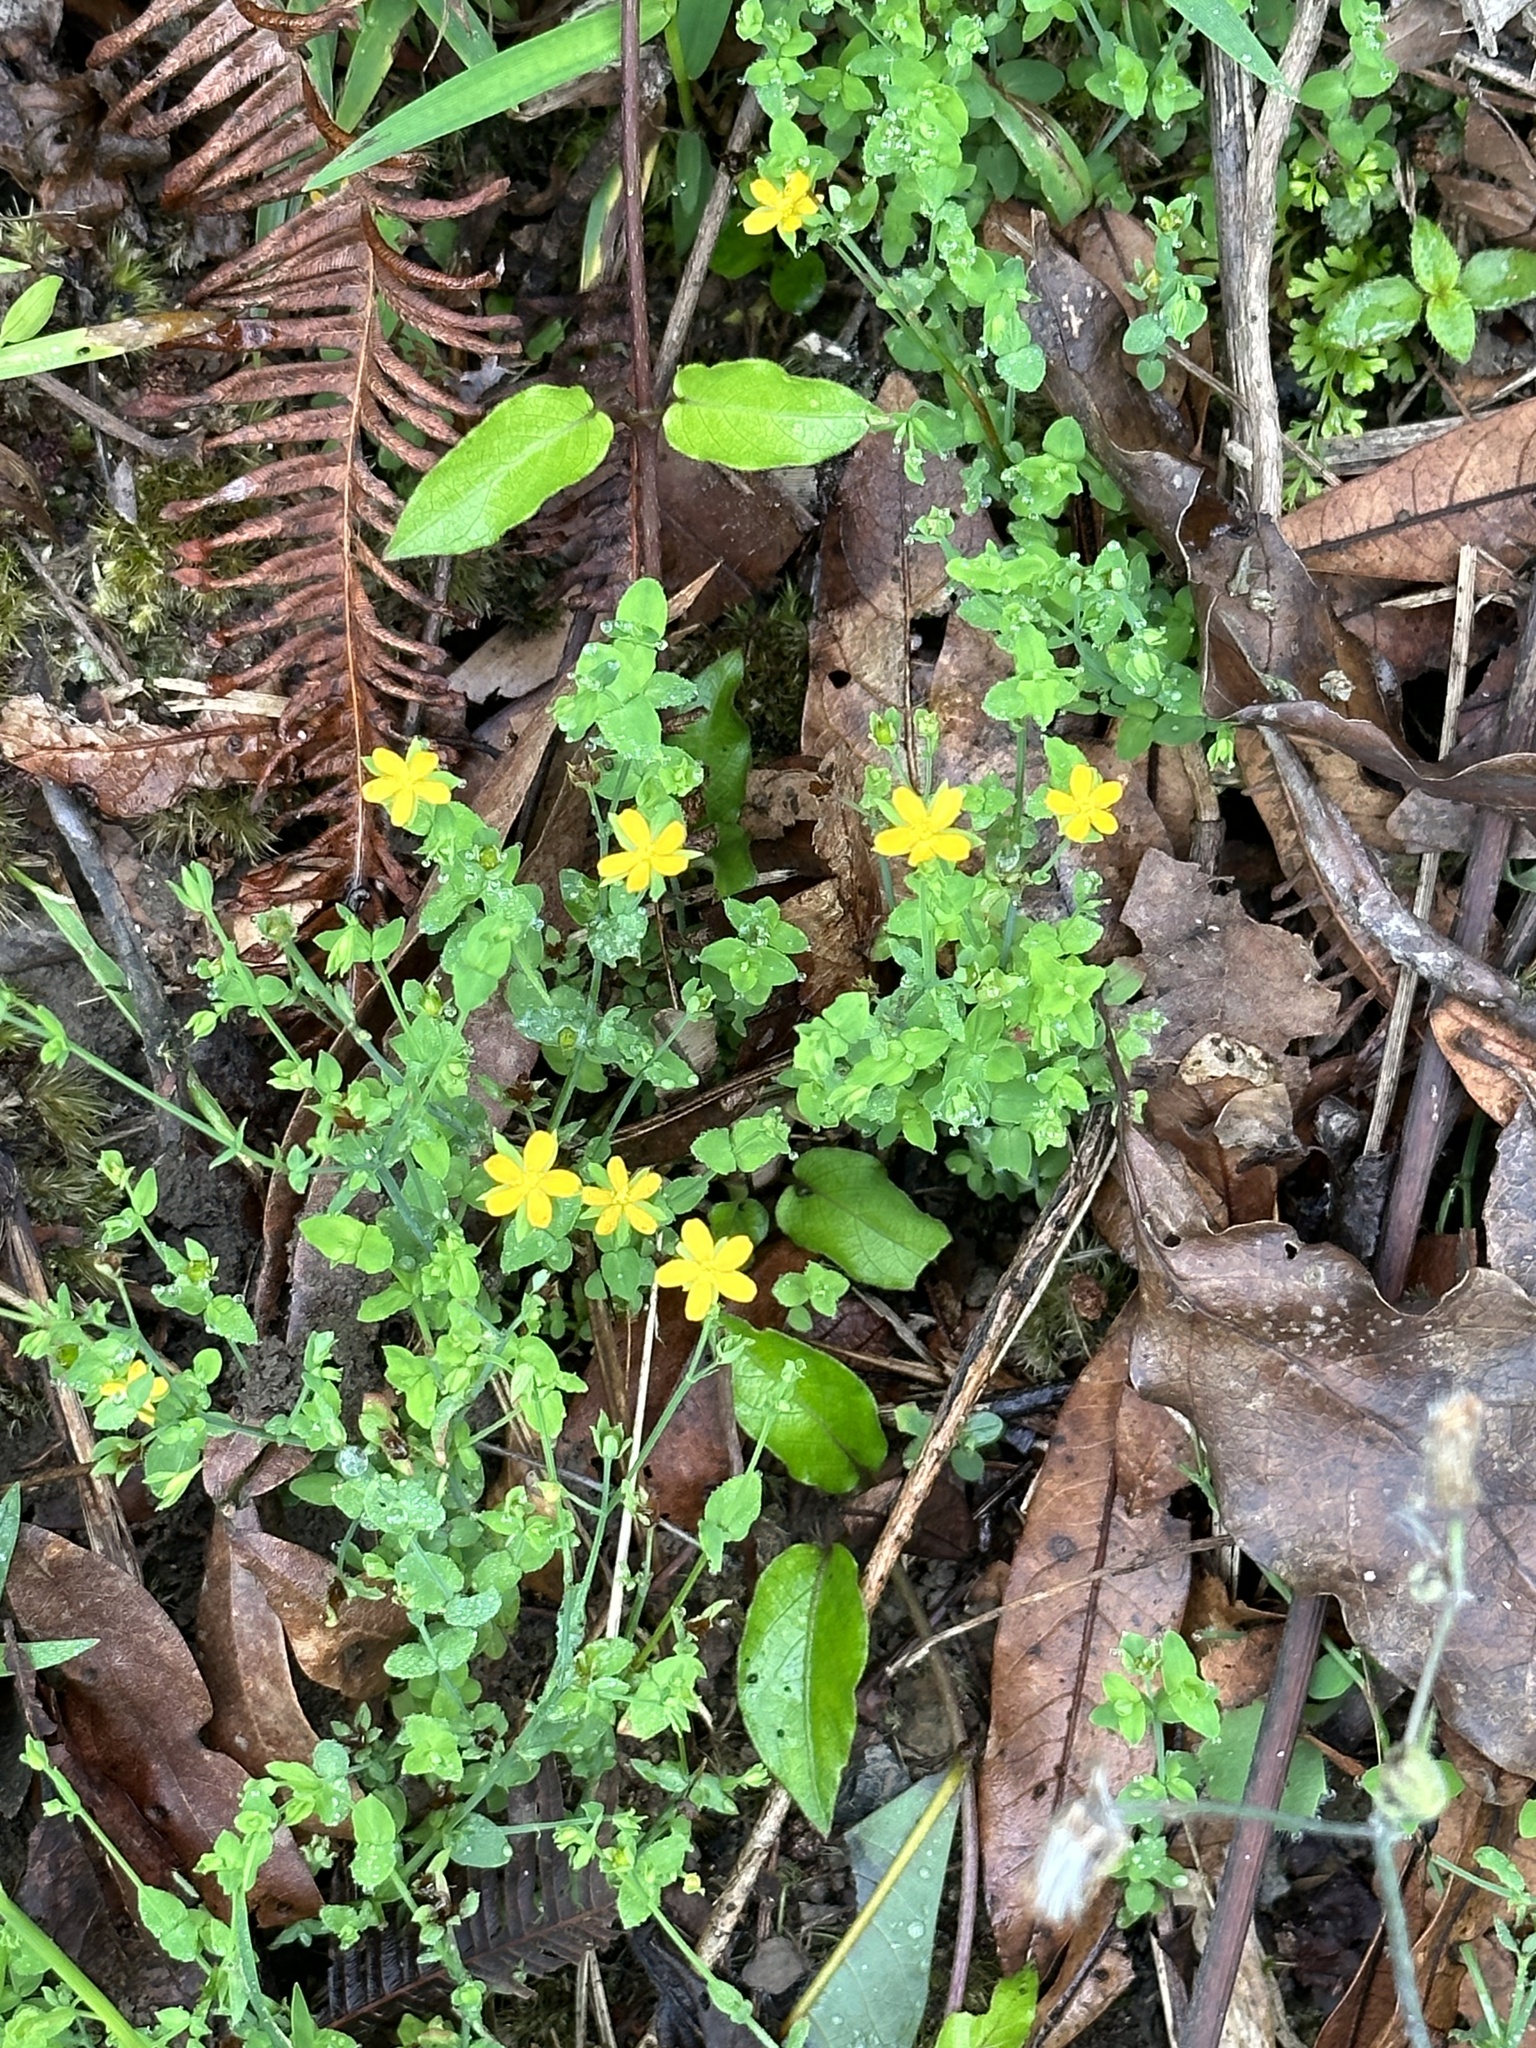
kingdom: Plantae
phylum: Tracheophyta
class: Magnoliopsida
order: Malpighiales
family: Hypericaceae
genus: Hypericum
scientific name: Hypericum japonicum
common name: Matted st. john's-wort
